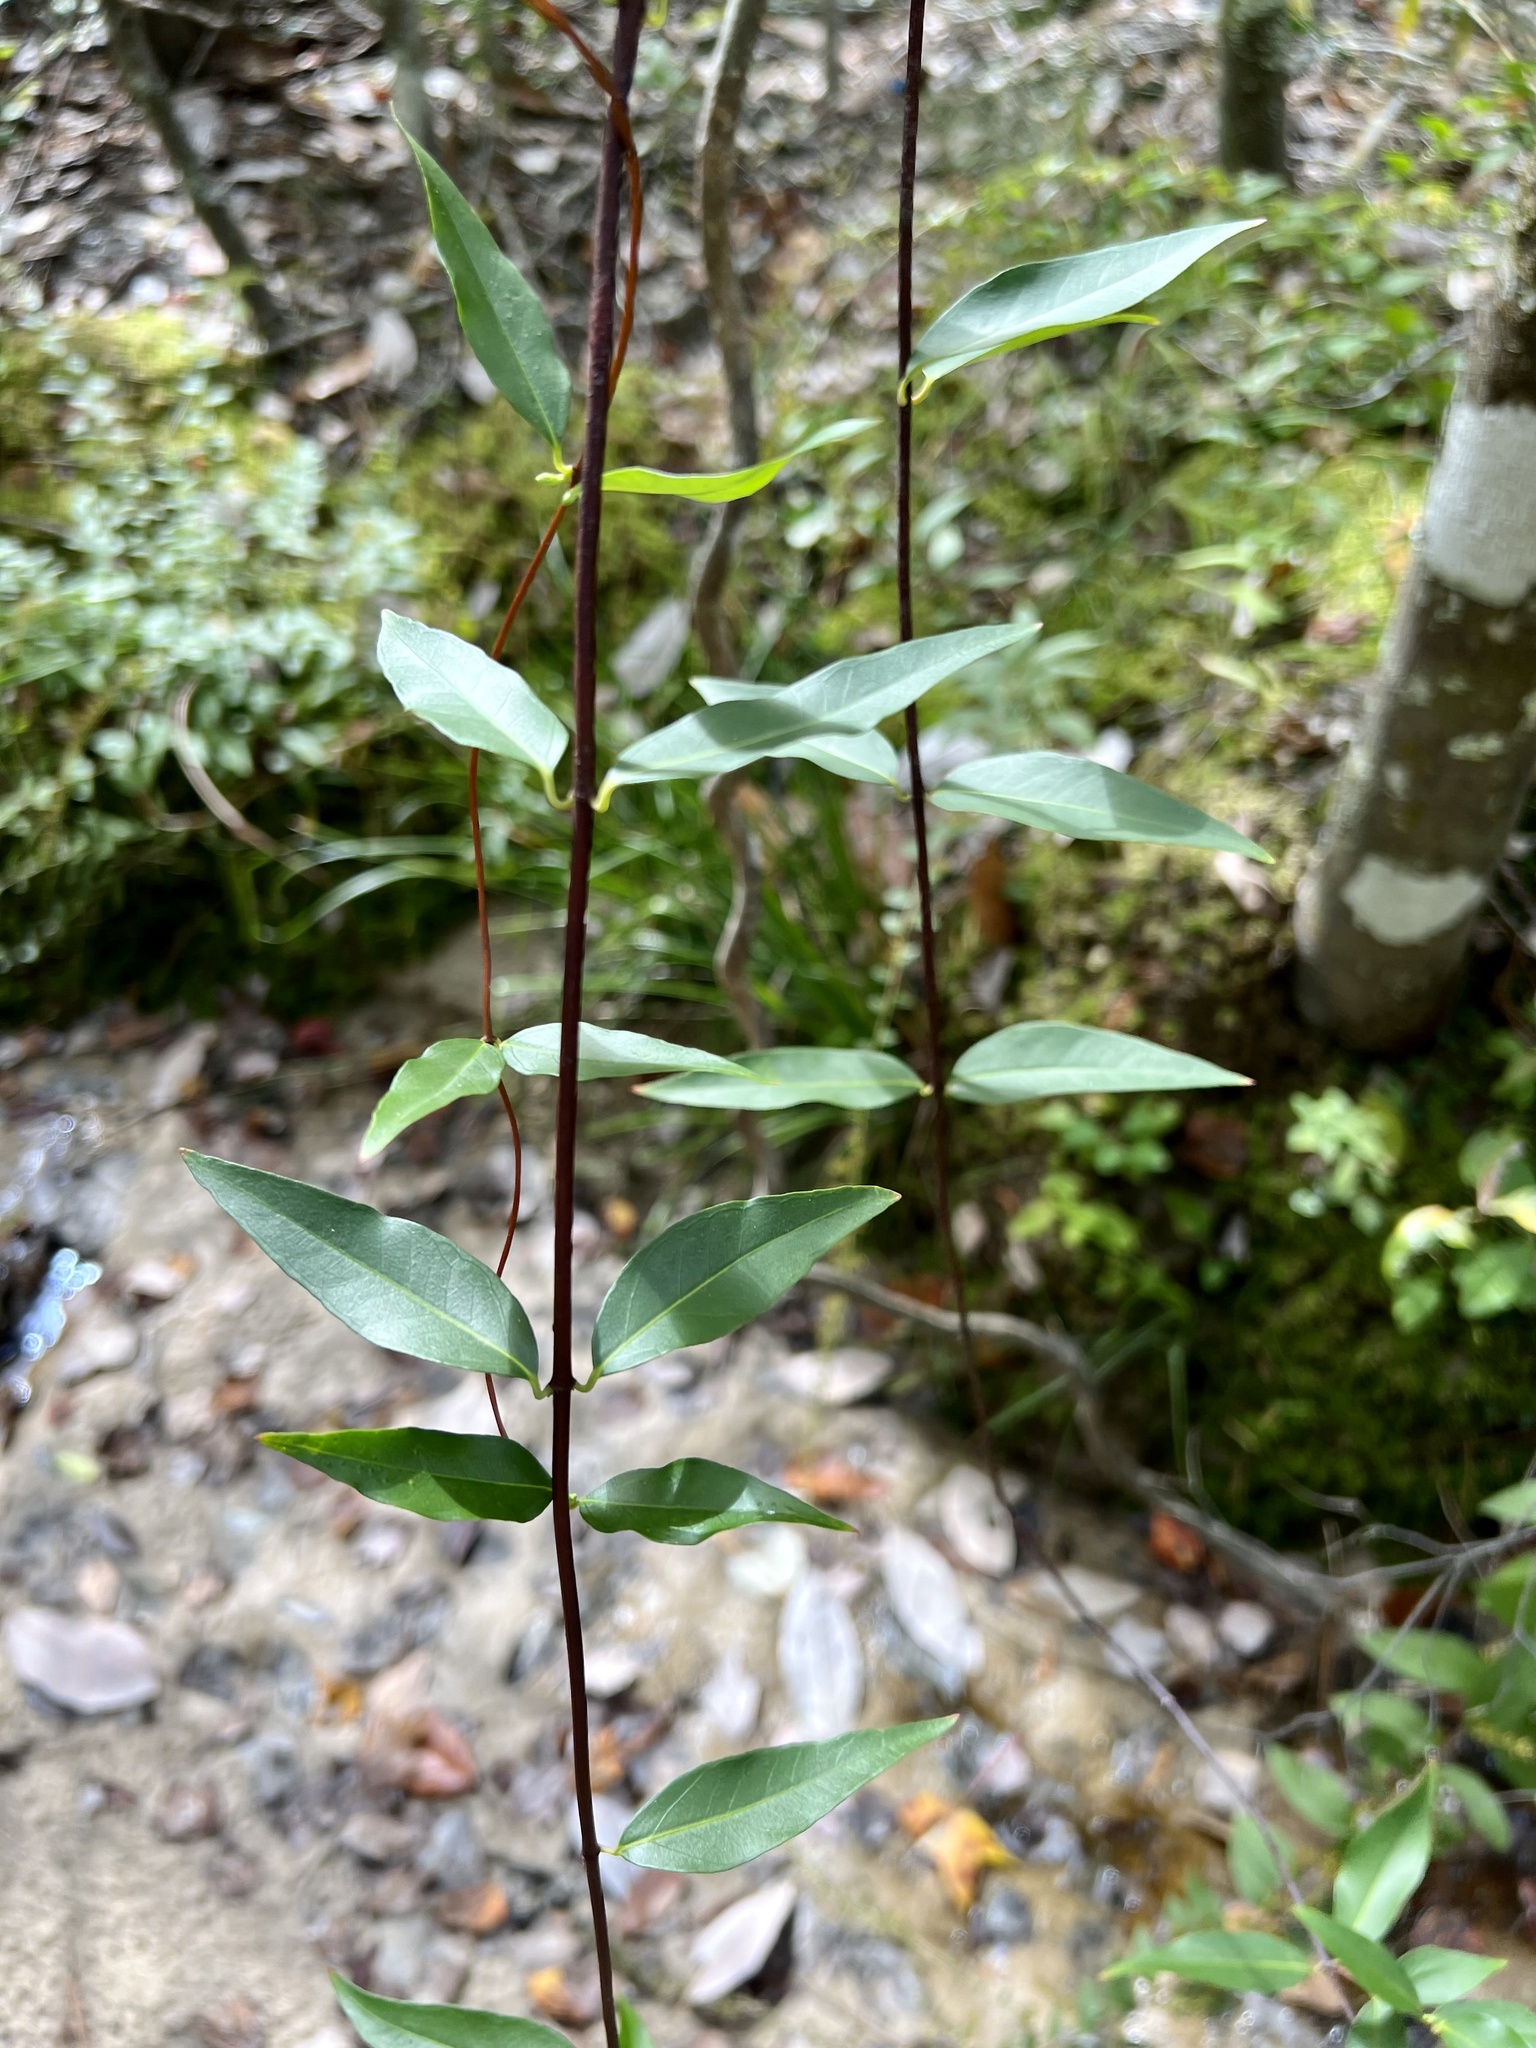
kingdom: Plantae
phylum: Tracheophyta
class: Magnoliopsida
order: Gentianales
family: Gelsemiaceae
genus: Gelsemium
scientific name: Gelsemium sempervirens
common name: Carolina-jasmine
